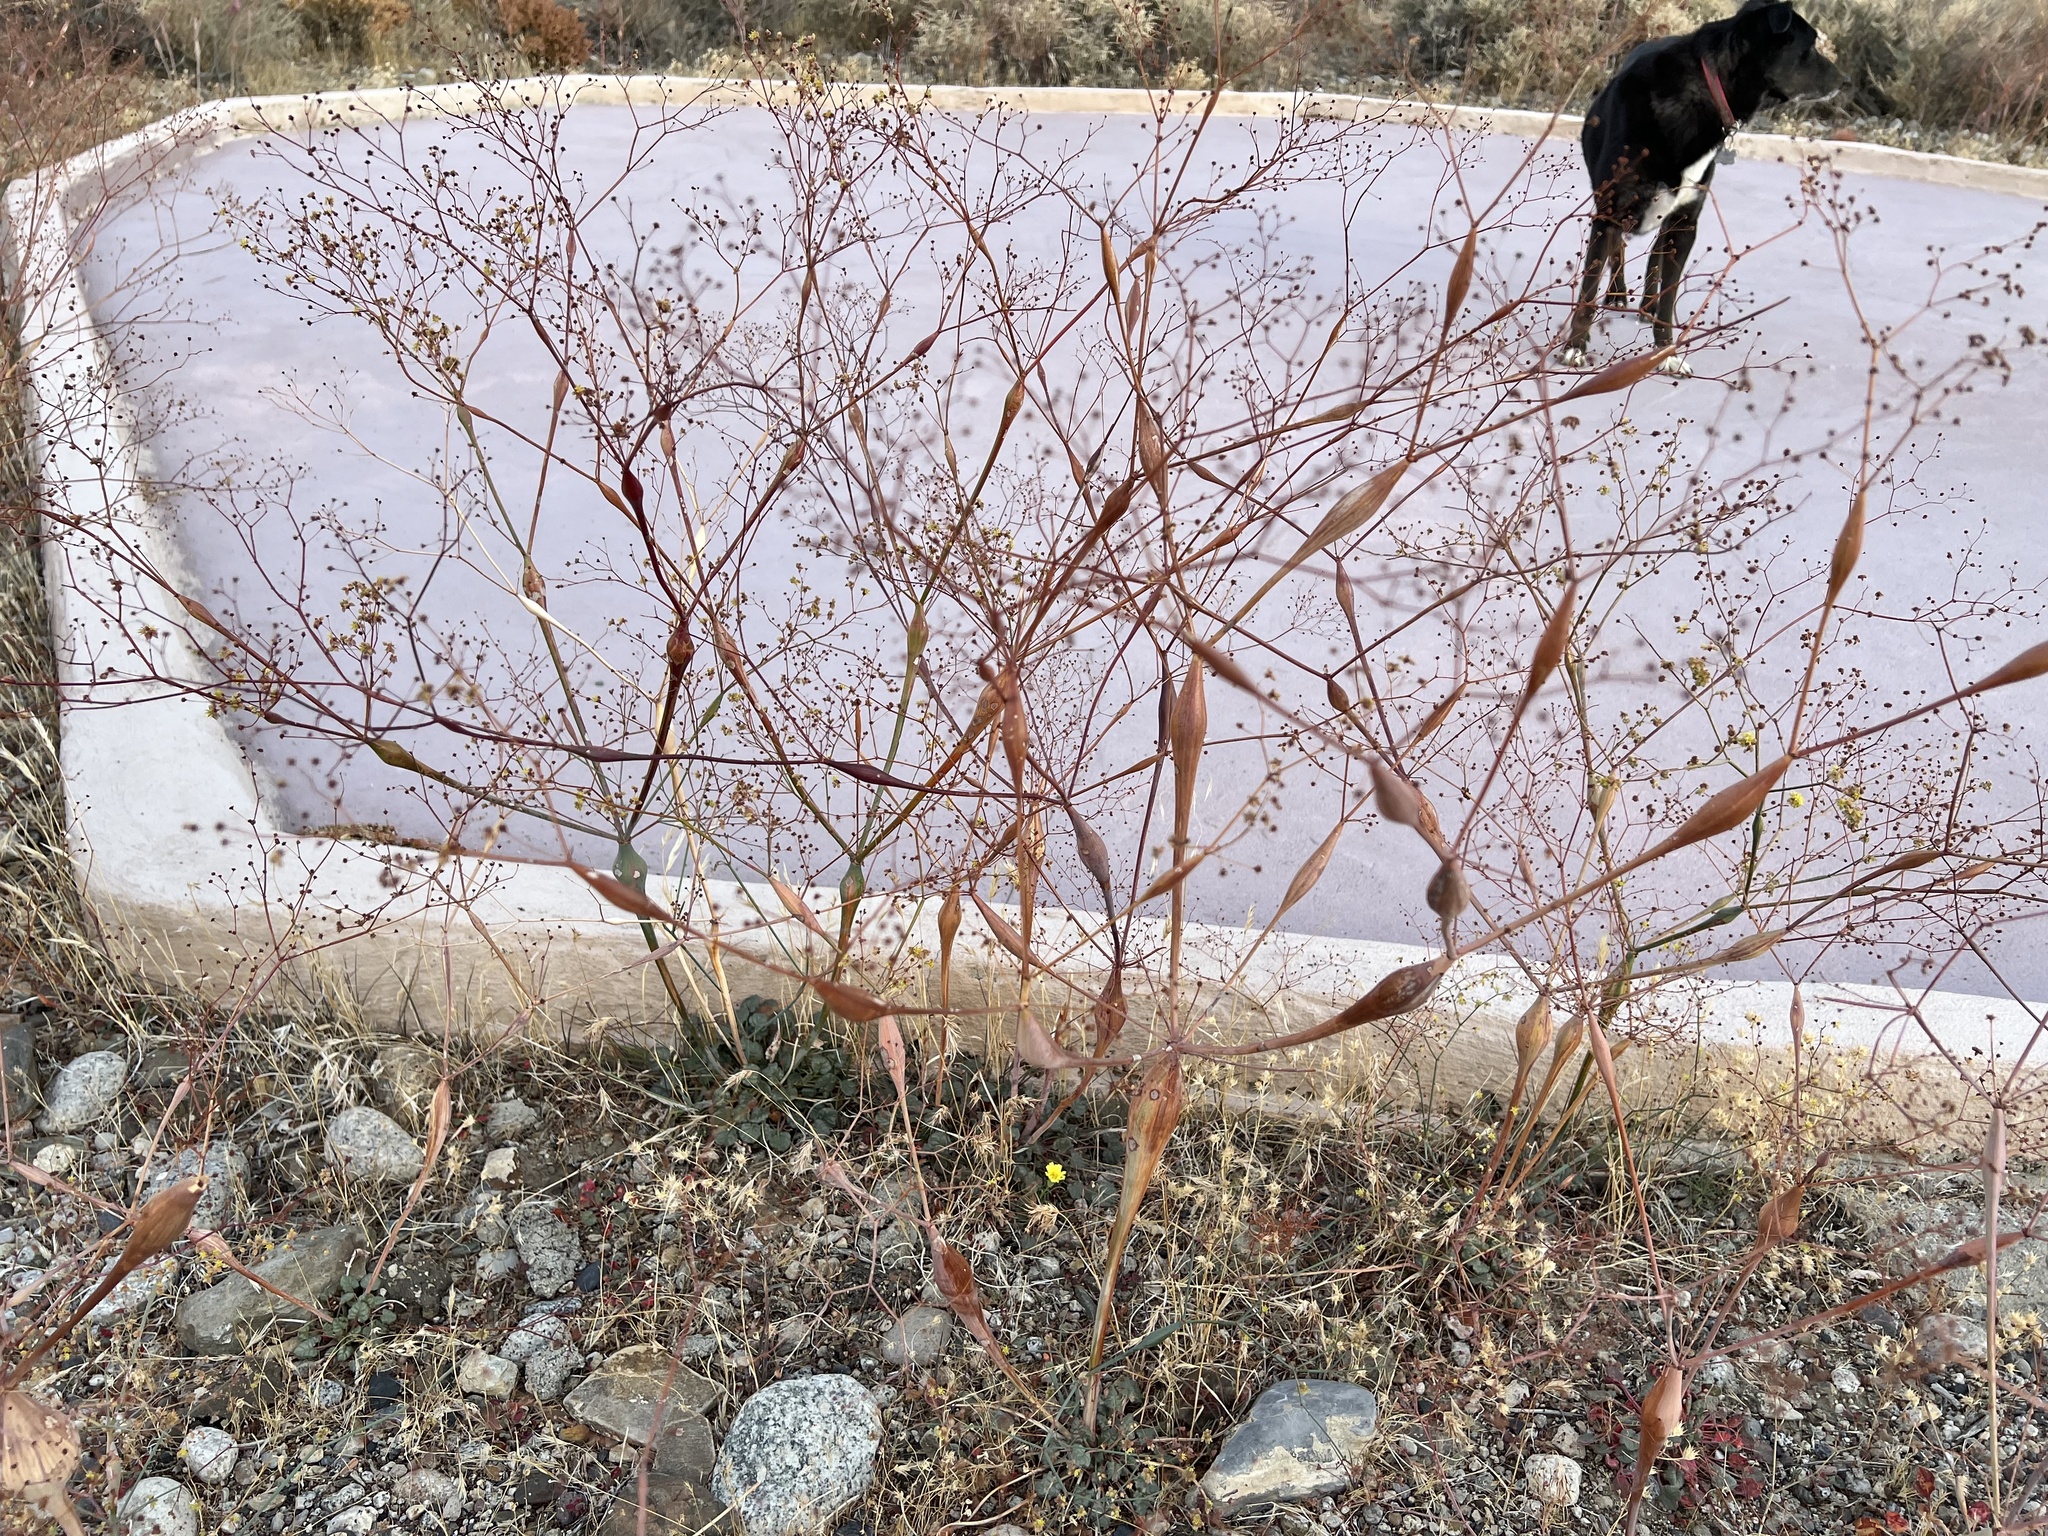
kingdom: Plantae
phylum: Tracheophyta
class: Magnoliopsida
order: Caryophyllales
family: Polygonaceae
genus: Eriogonum
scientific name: Eriogonum inflatum
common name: Desert trumpet
